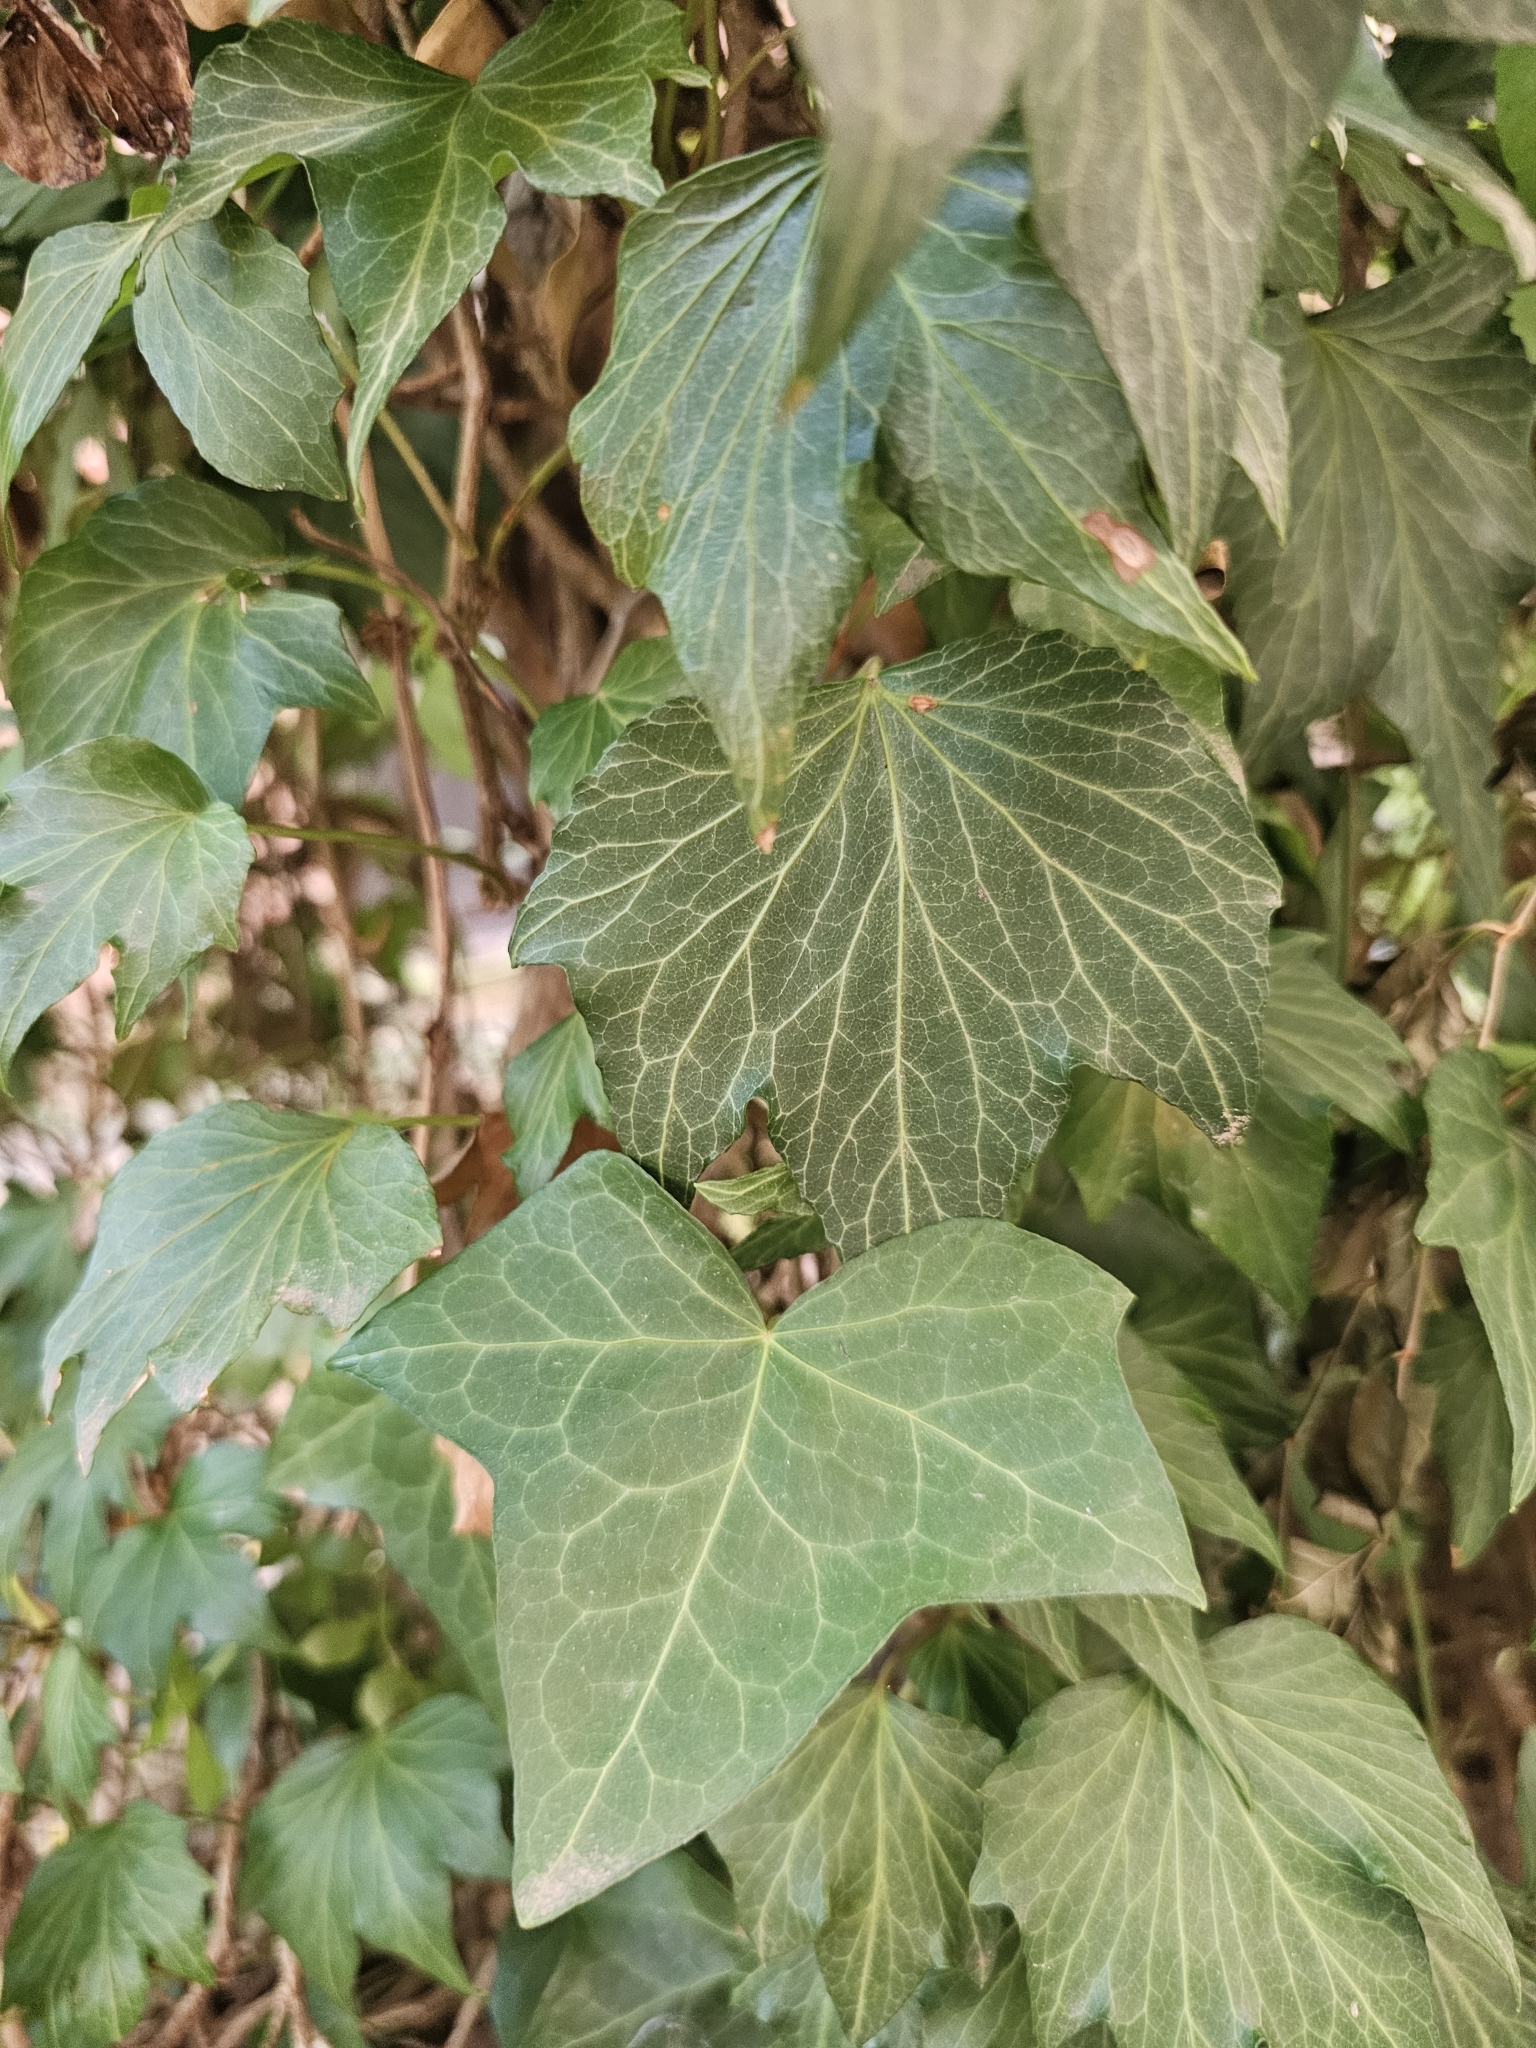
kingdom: Plantae
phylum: Tracheophyta
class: Magnoliopsida
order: Apiales
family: Araliaceae
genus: Hedera
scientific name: Hedera helix
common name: Ivy
